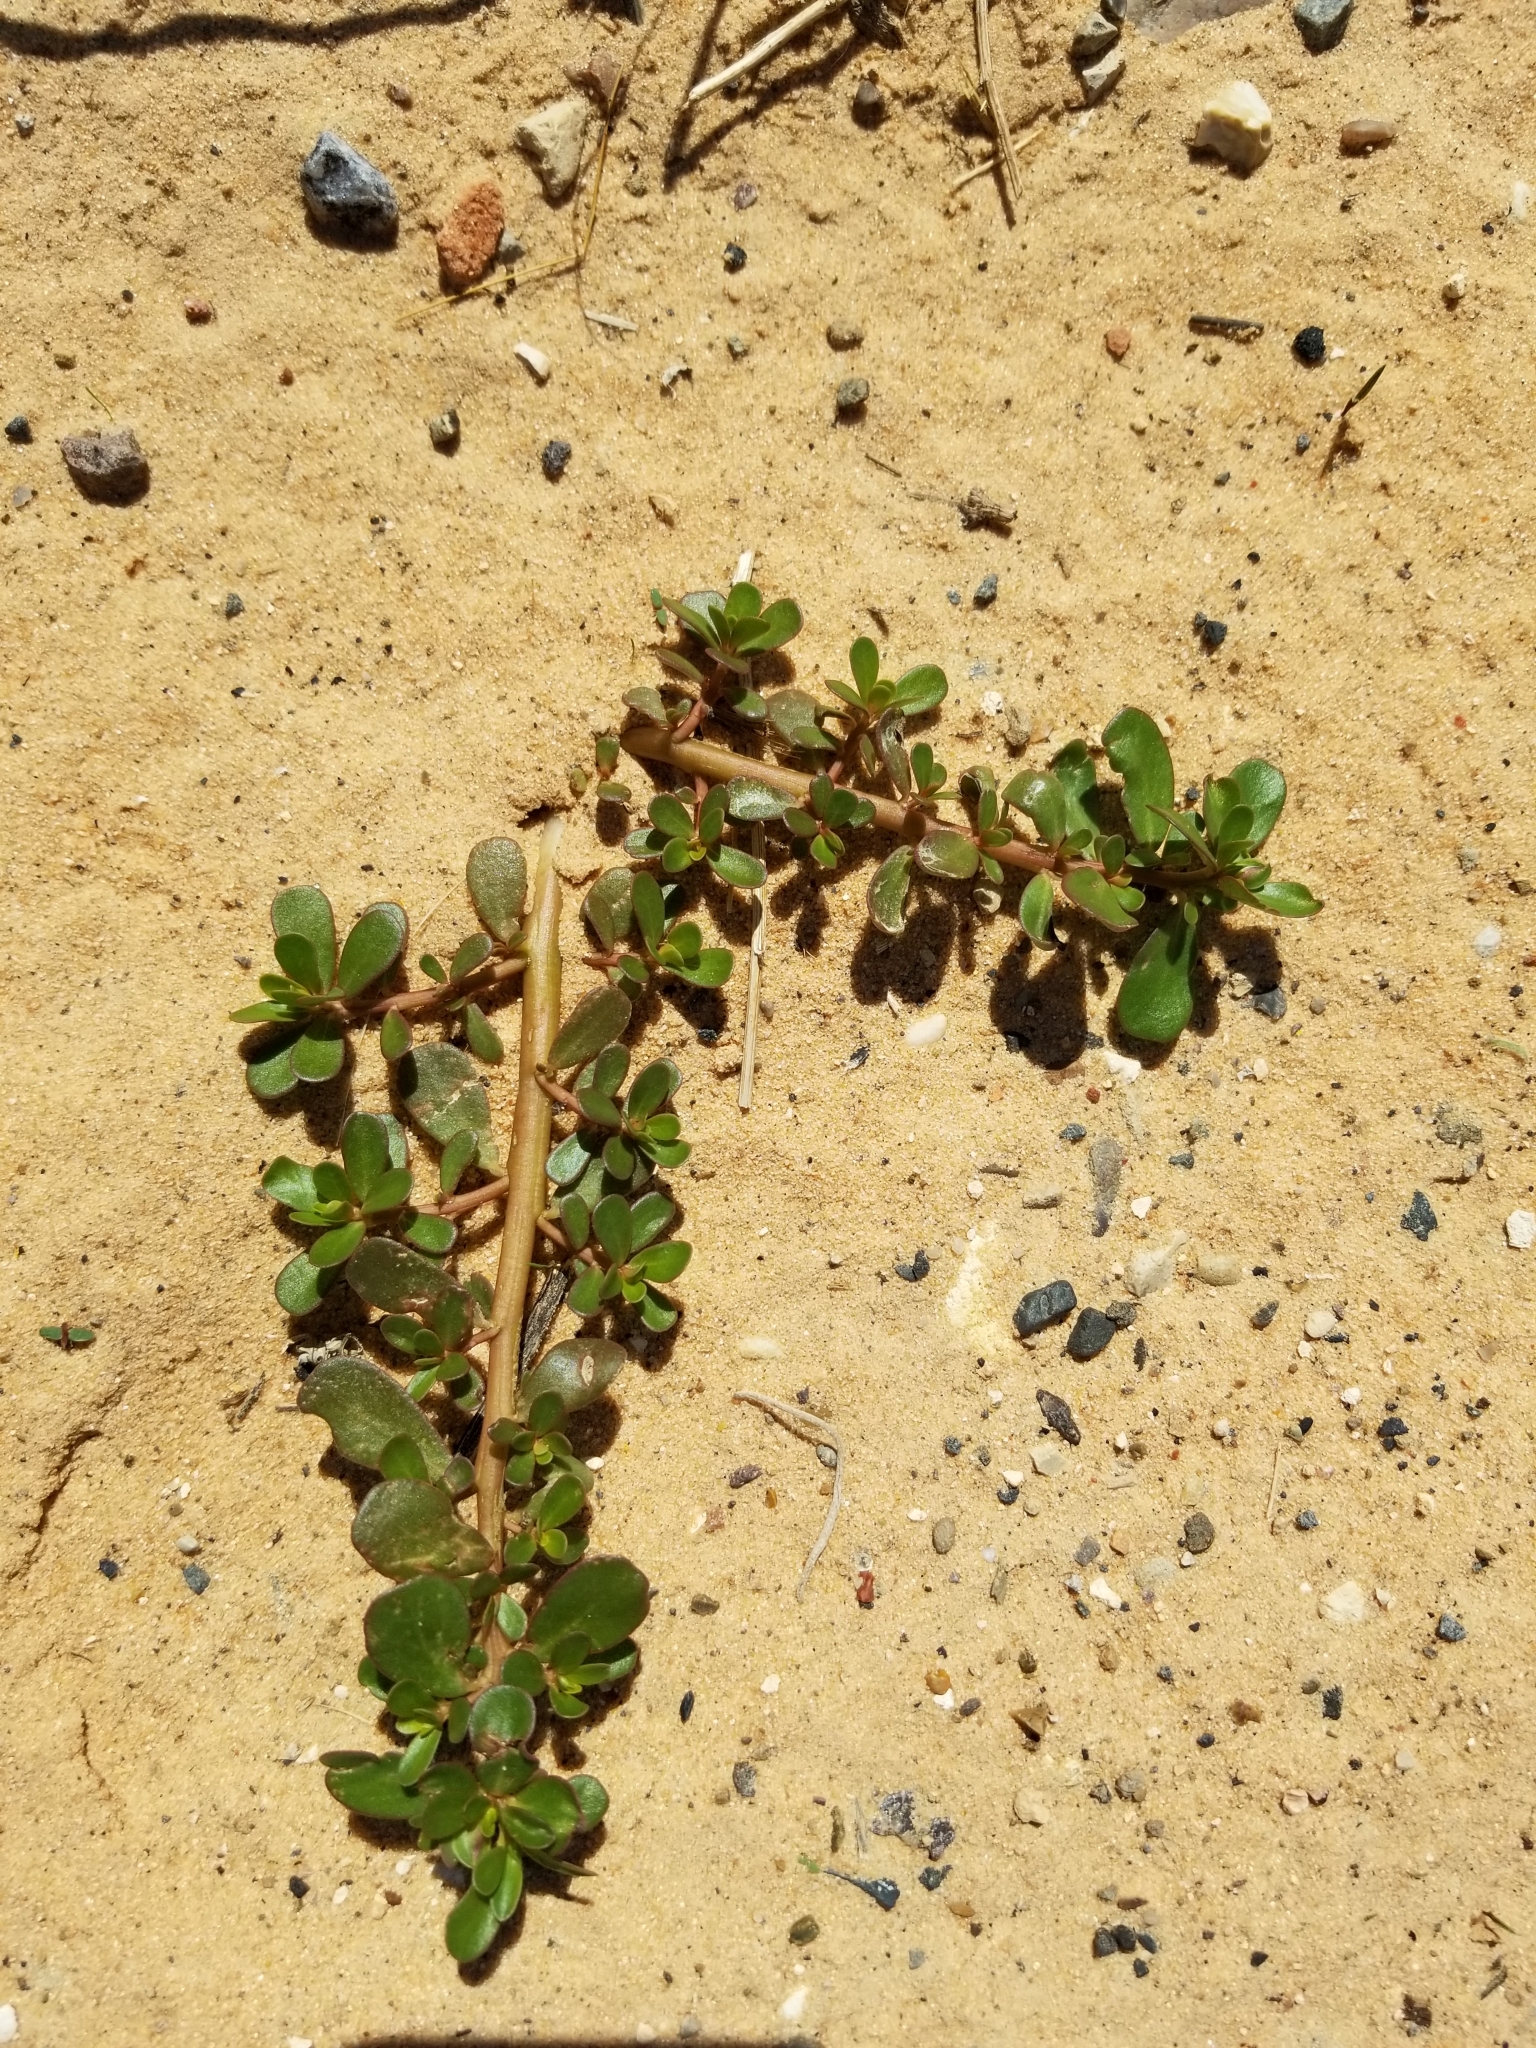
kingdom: Plantae
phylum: Tracheophyta
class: Magnoliopsida
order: Caryophyllales
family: Portulacaceae
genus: Portulaca
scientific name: Portulaca oleracea
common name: Common purslane
